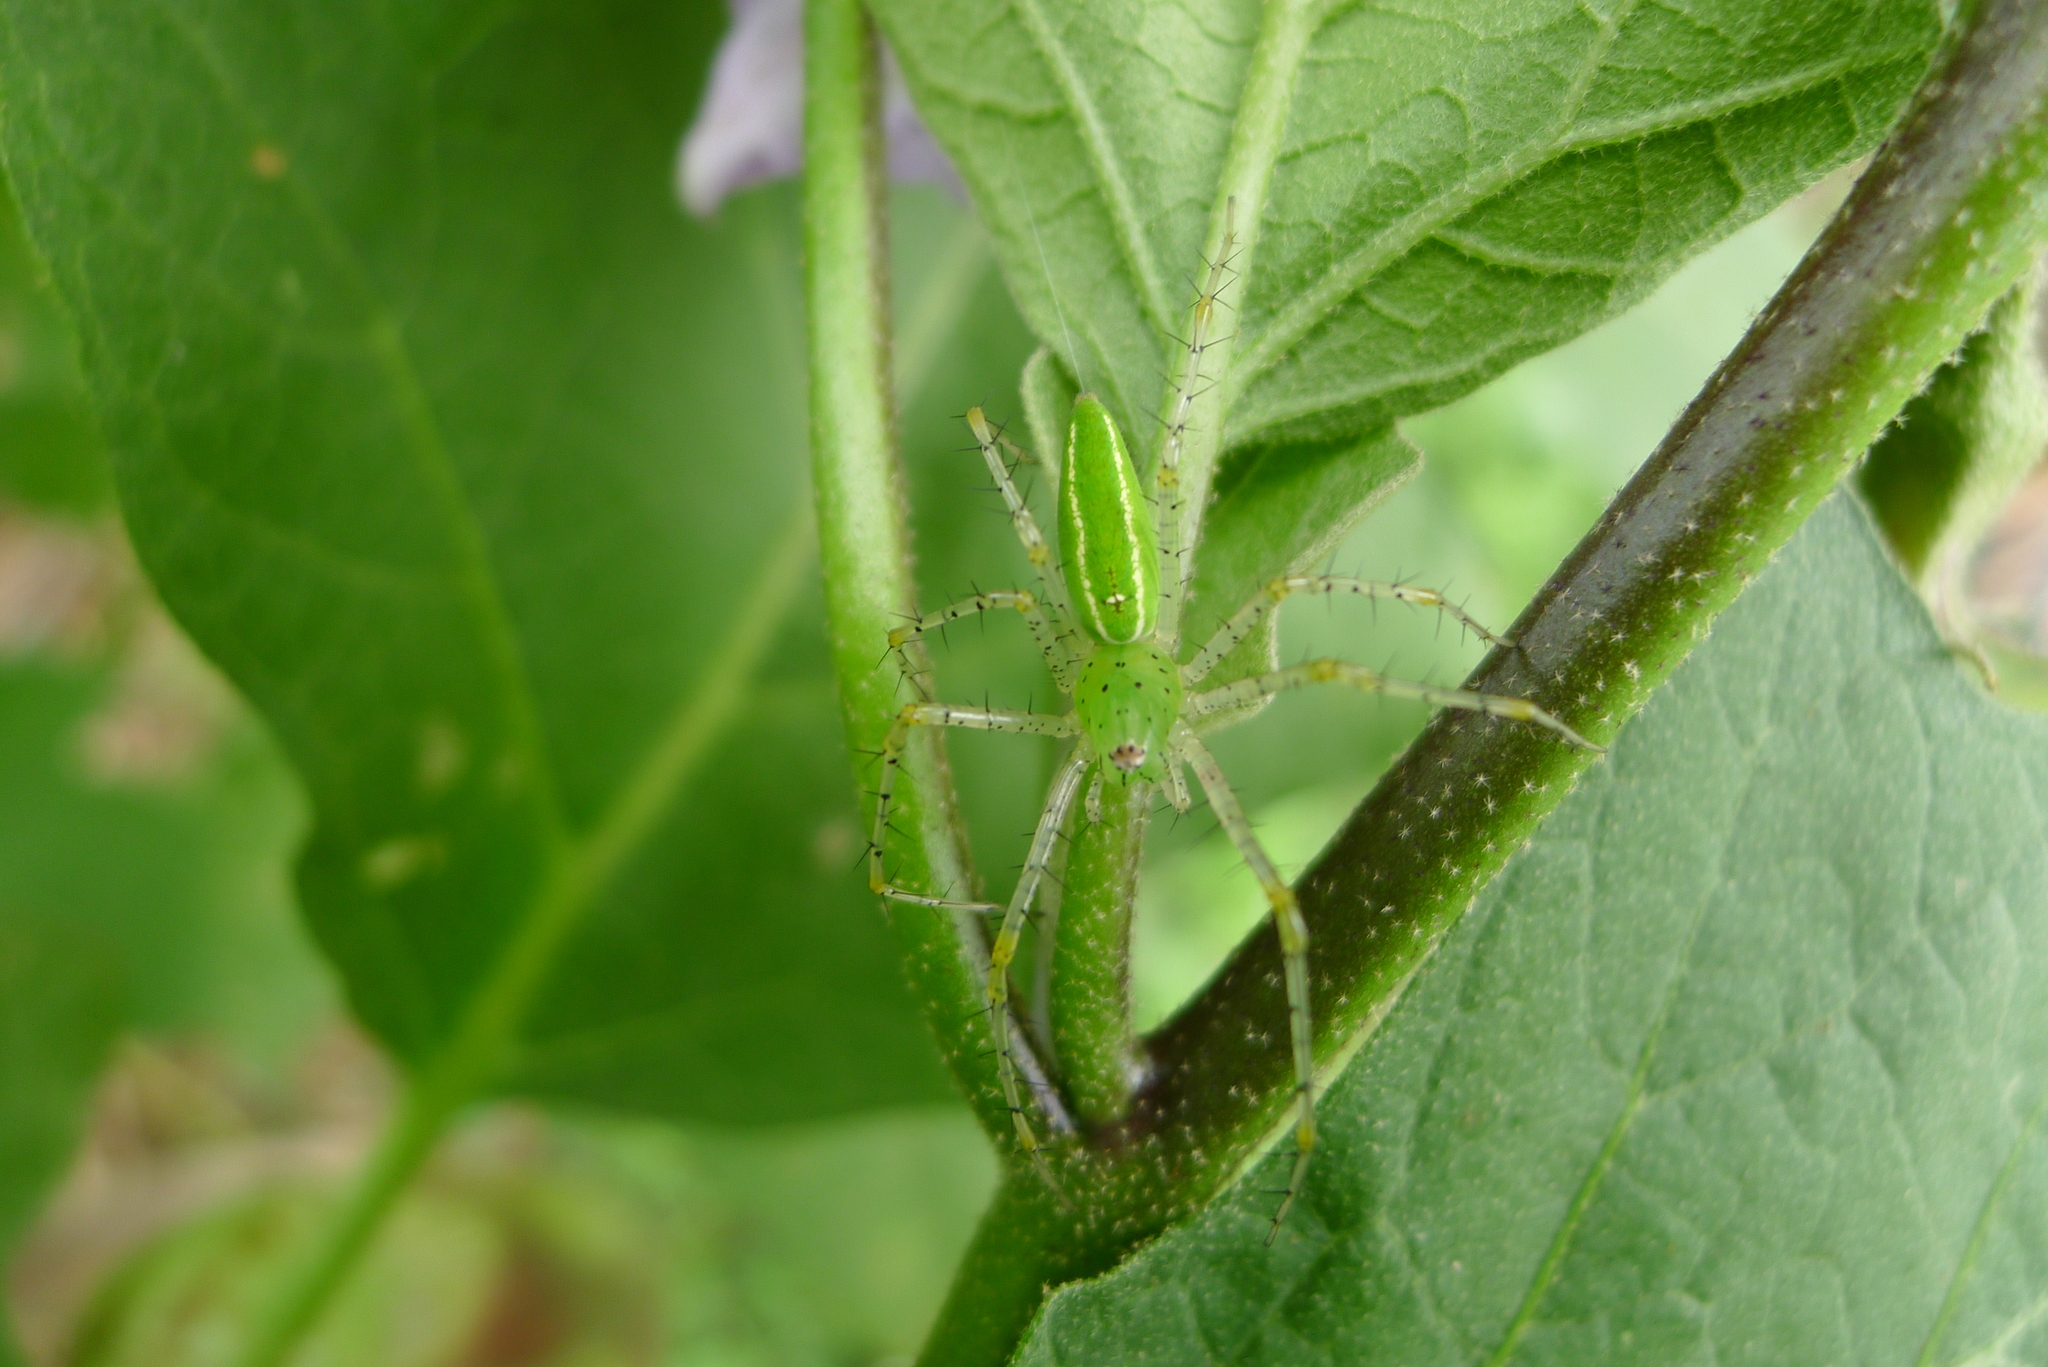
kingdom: Animalia
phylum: Arthropoda
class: Arachnida
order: Araneae
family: Oxyopidae
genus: Peucetia
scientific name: Peucetia formosensis
